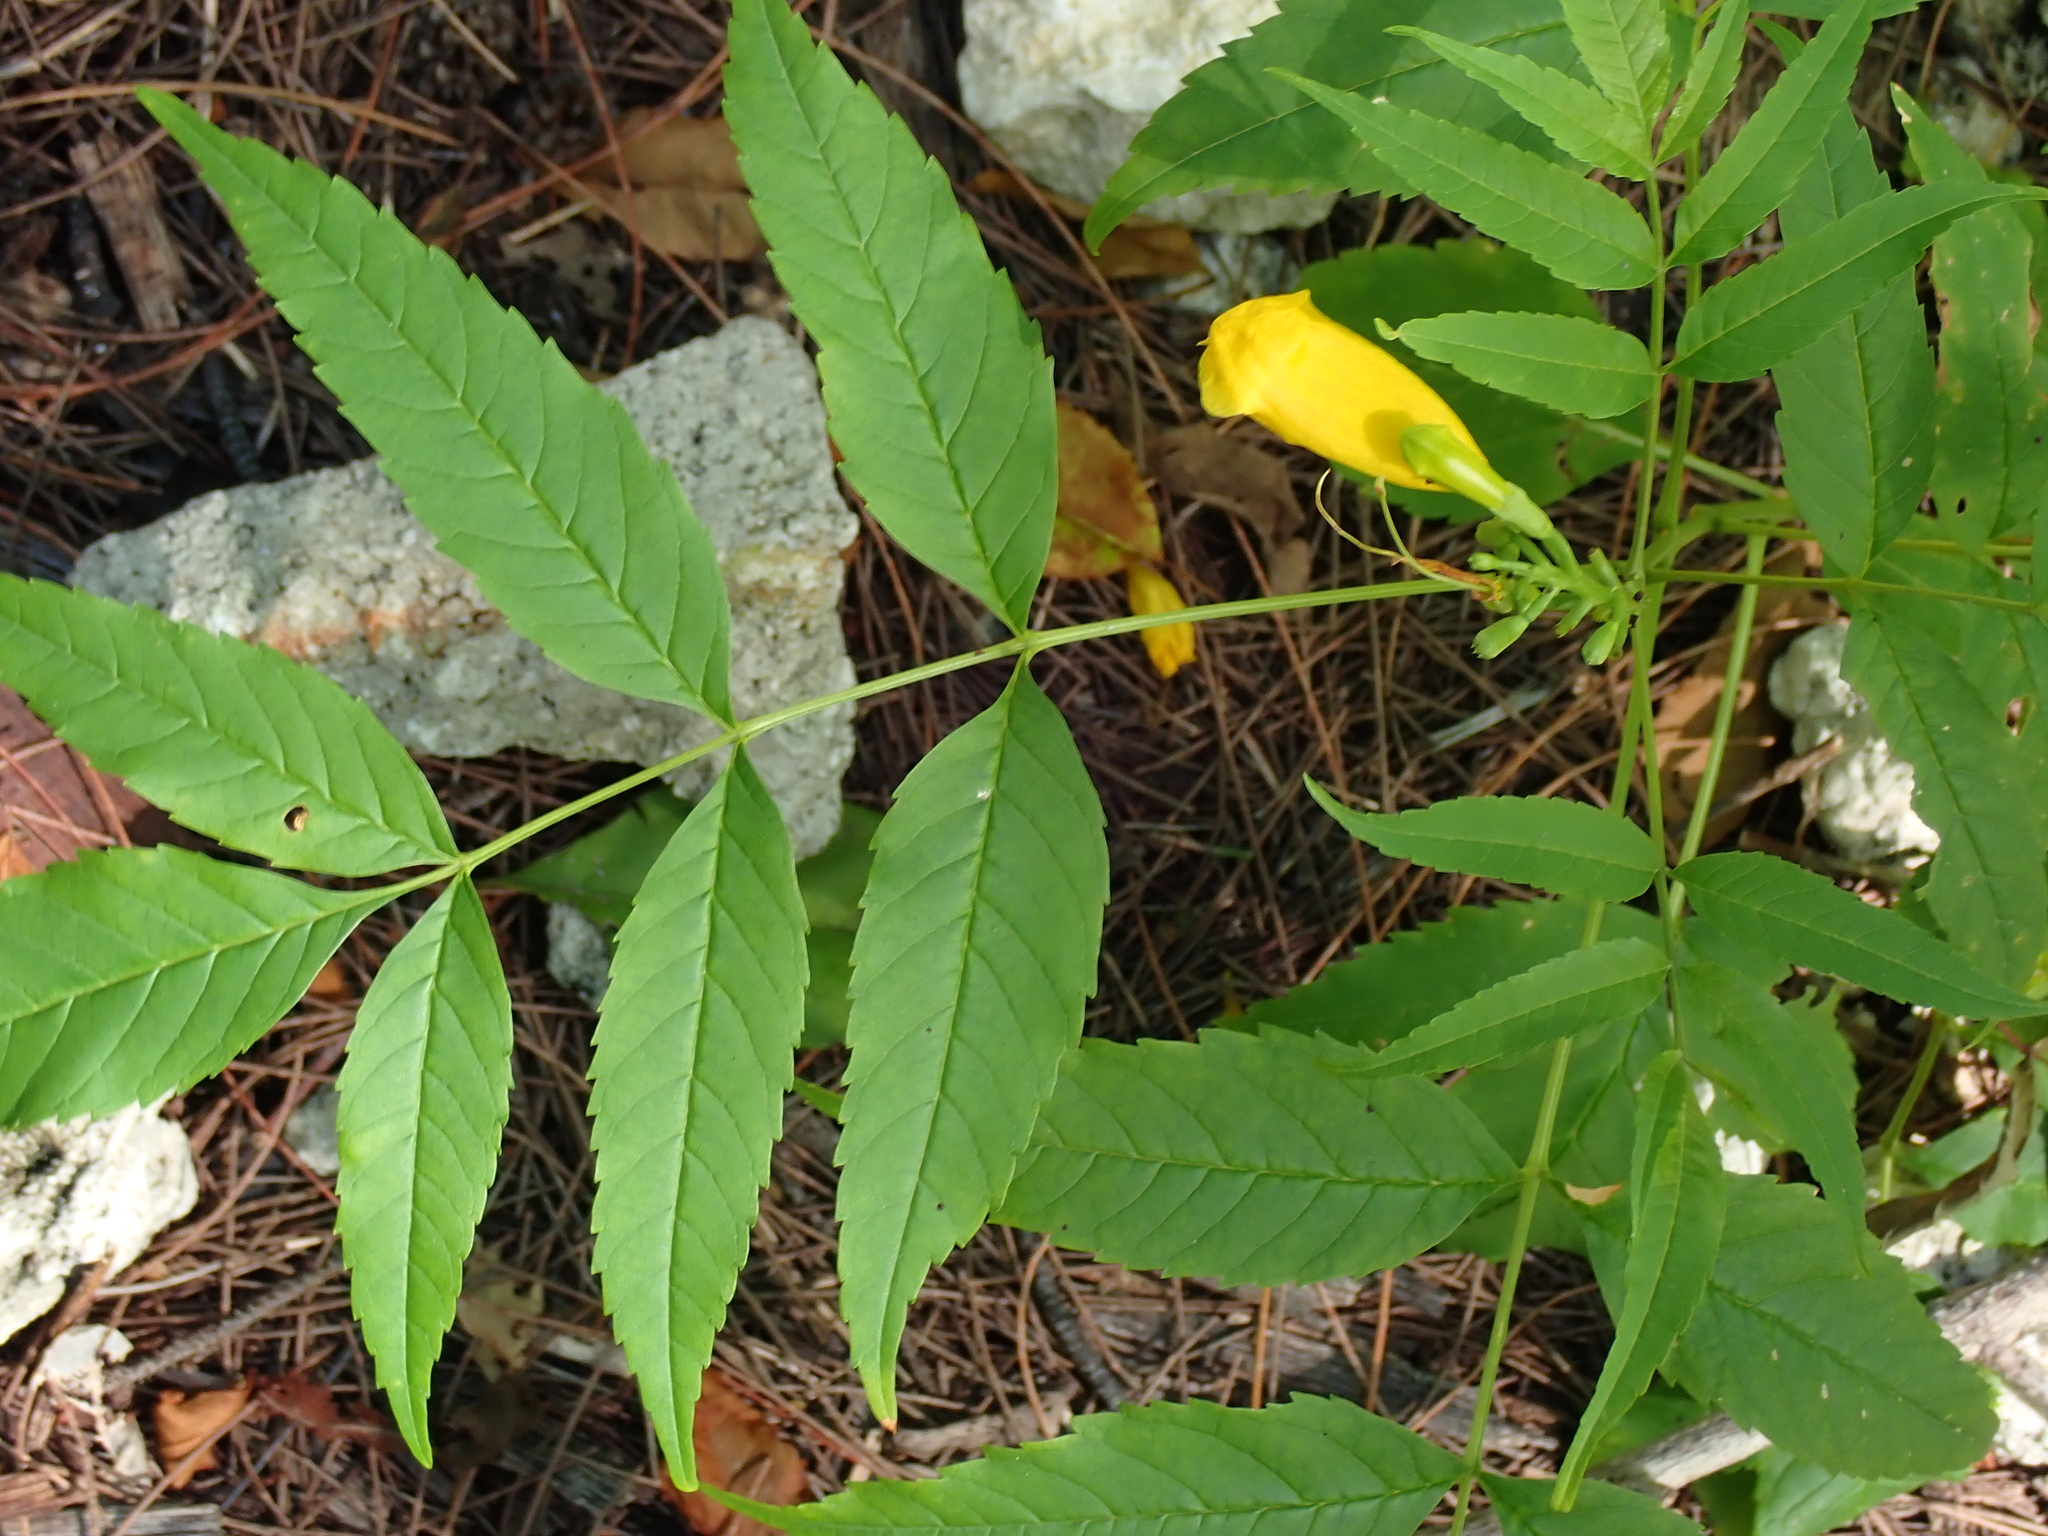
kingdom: Plantae
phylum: Tracheophyta
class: Magnoliopsida
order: Lamiales
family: Bignoniaceae
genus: Tecoma
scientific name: Tecoma stans
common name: Yellow trumpetbush
